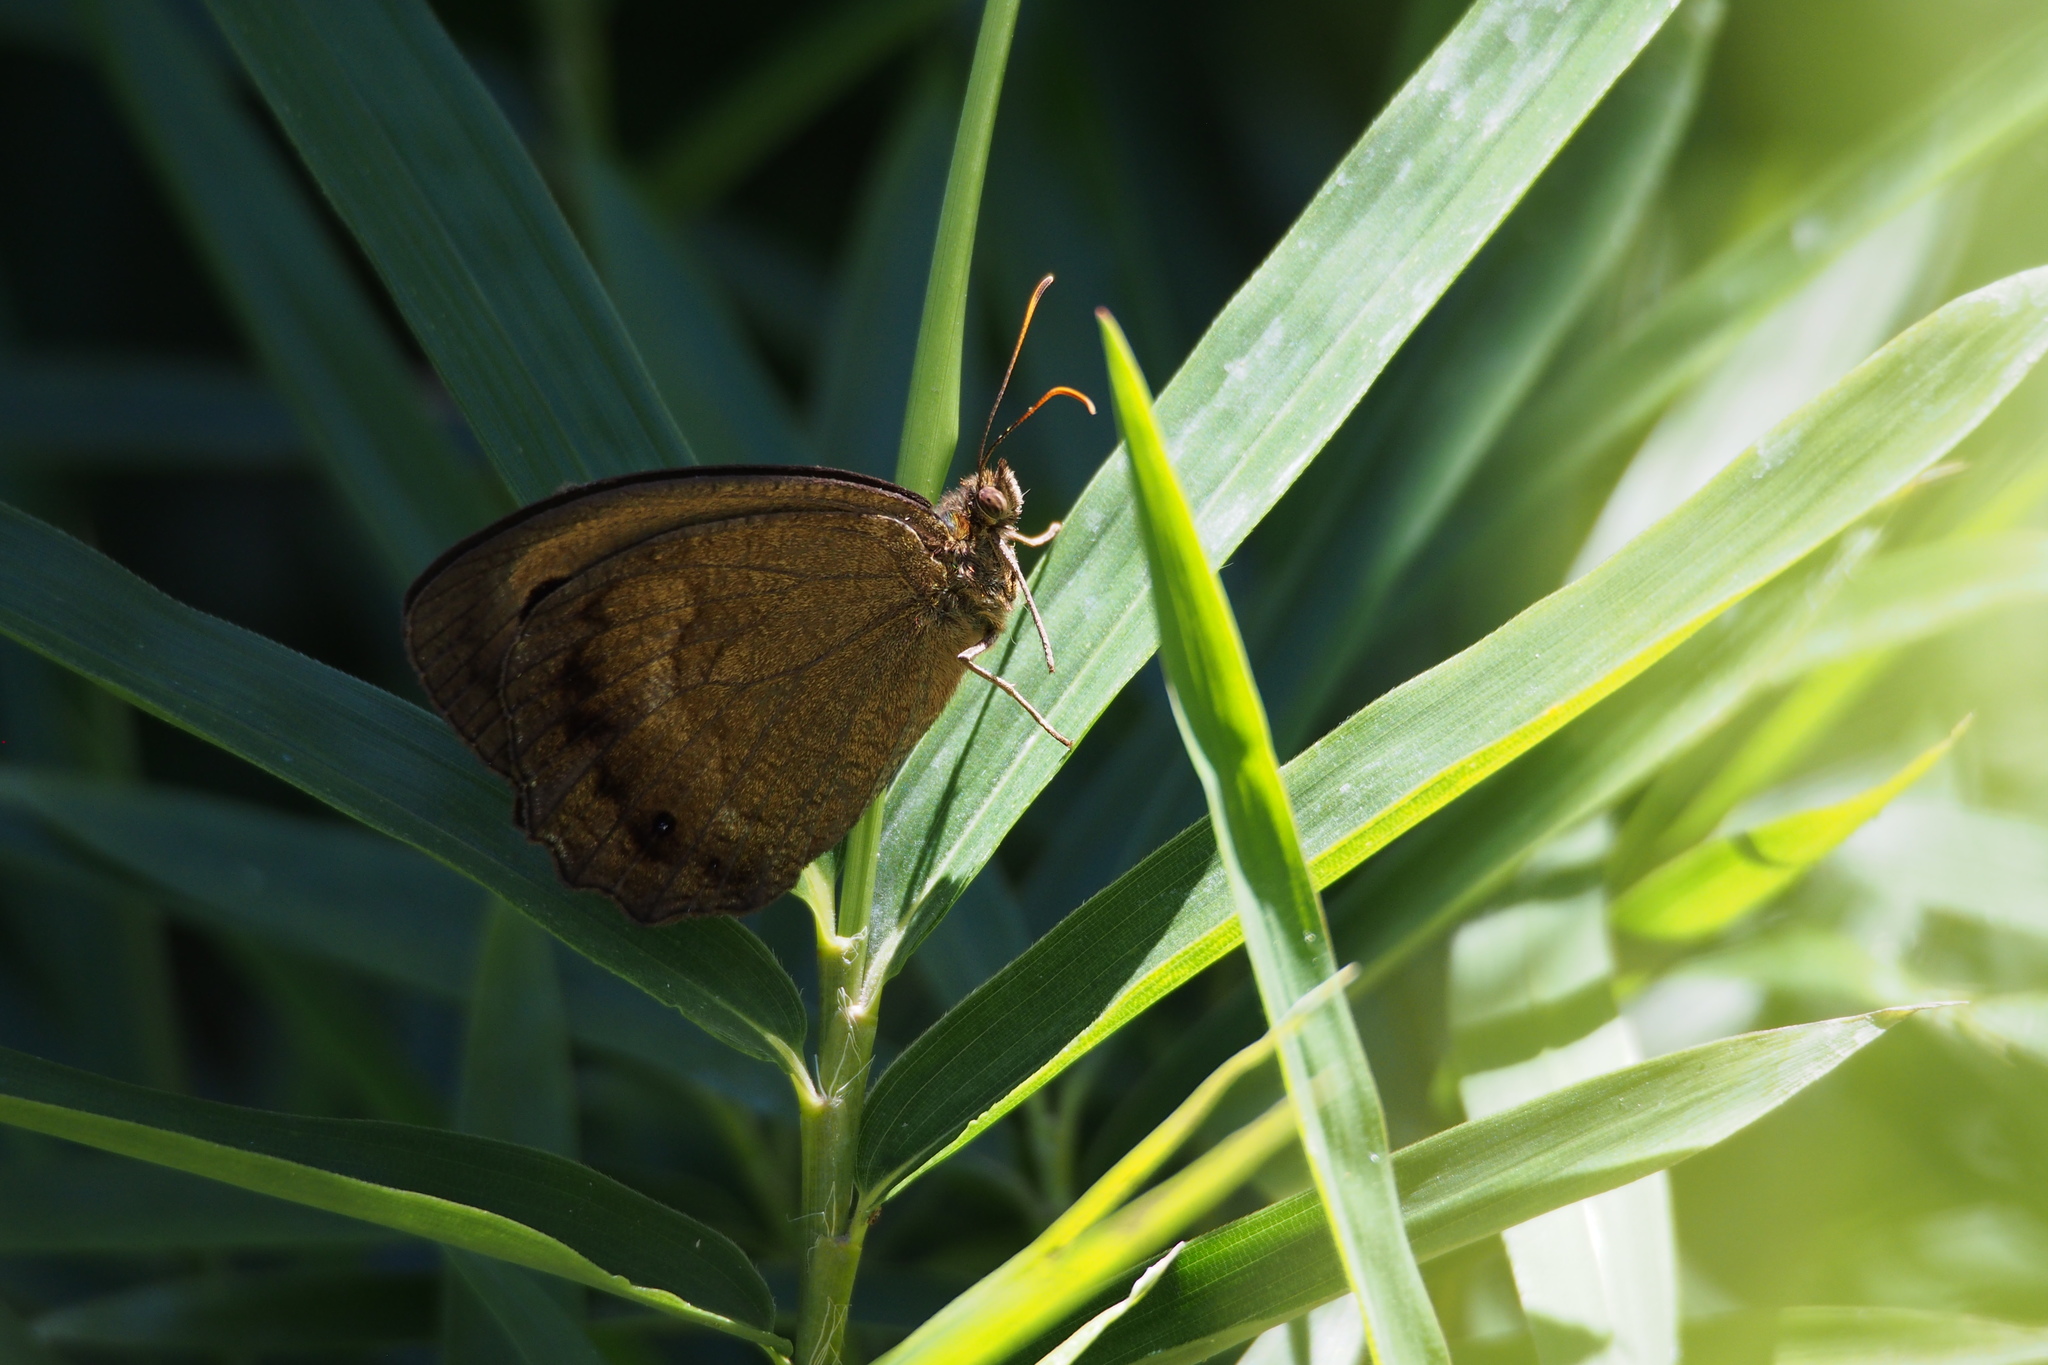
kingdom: Animalia
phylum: Arthropoda
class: Insecta
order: Lepidoptera
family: Nymphalidae
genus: Minois
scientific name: Minois dryas
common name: Dryad
